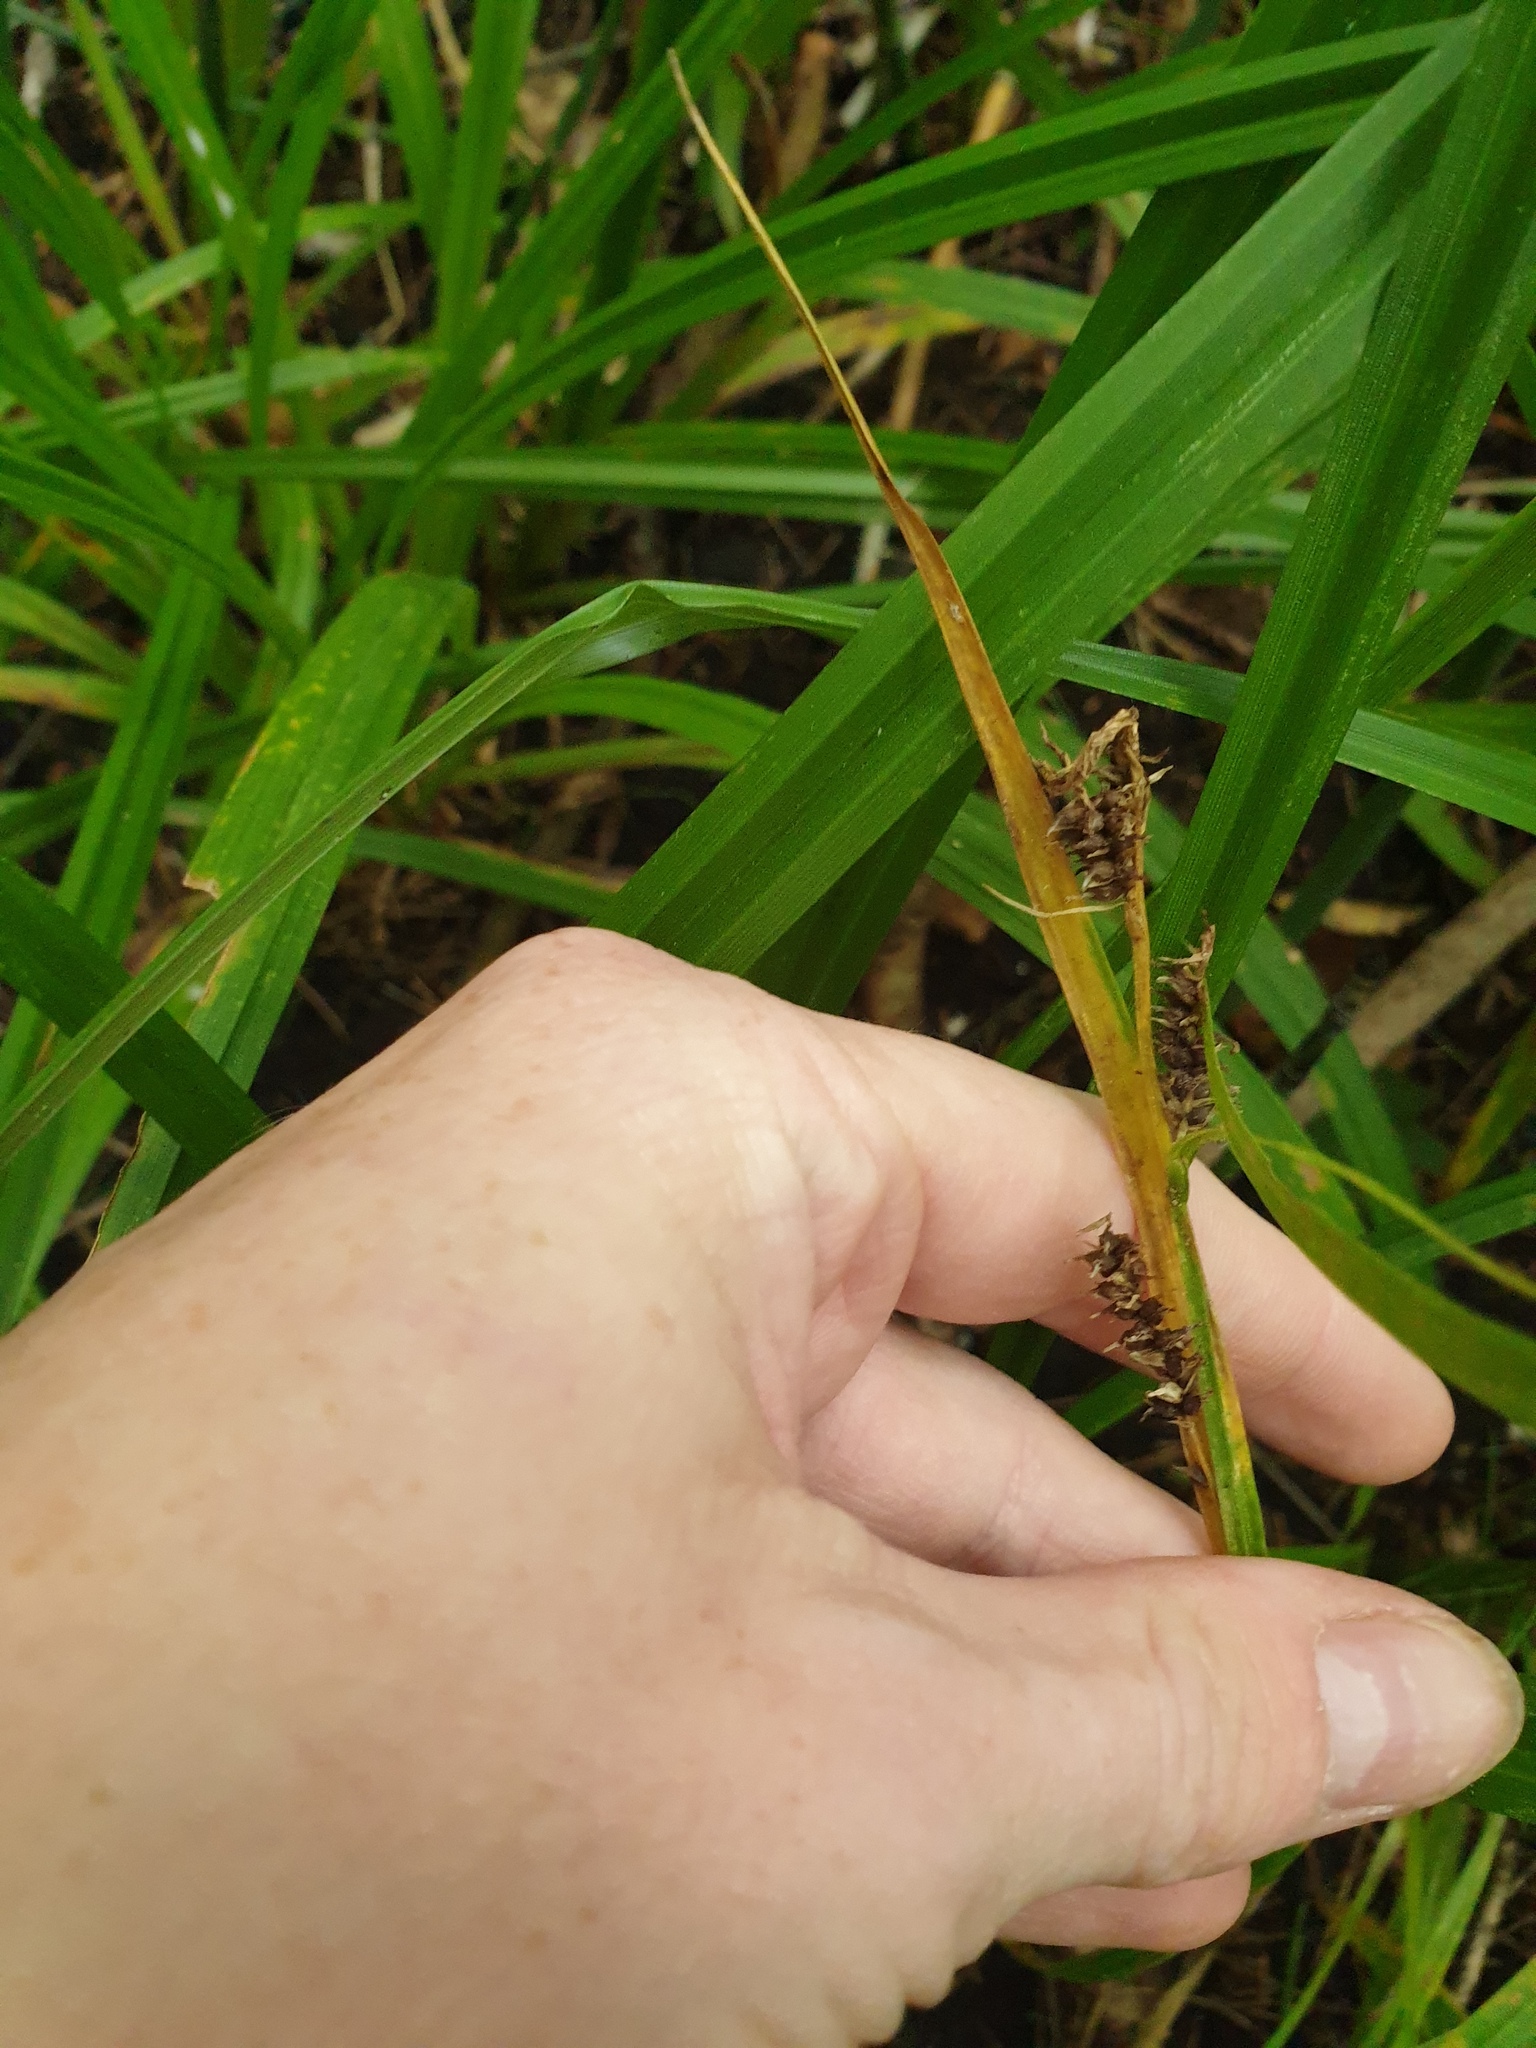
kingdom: Plantae
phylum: Tracheophyta
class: Liliopsida
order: Poales
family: Cyperaceae
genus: Carex
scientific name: Carex scabrata
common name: Eastern rough sedge
